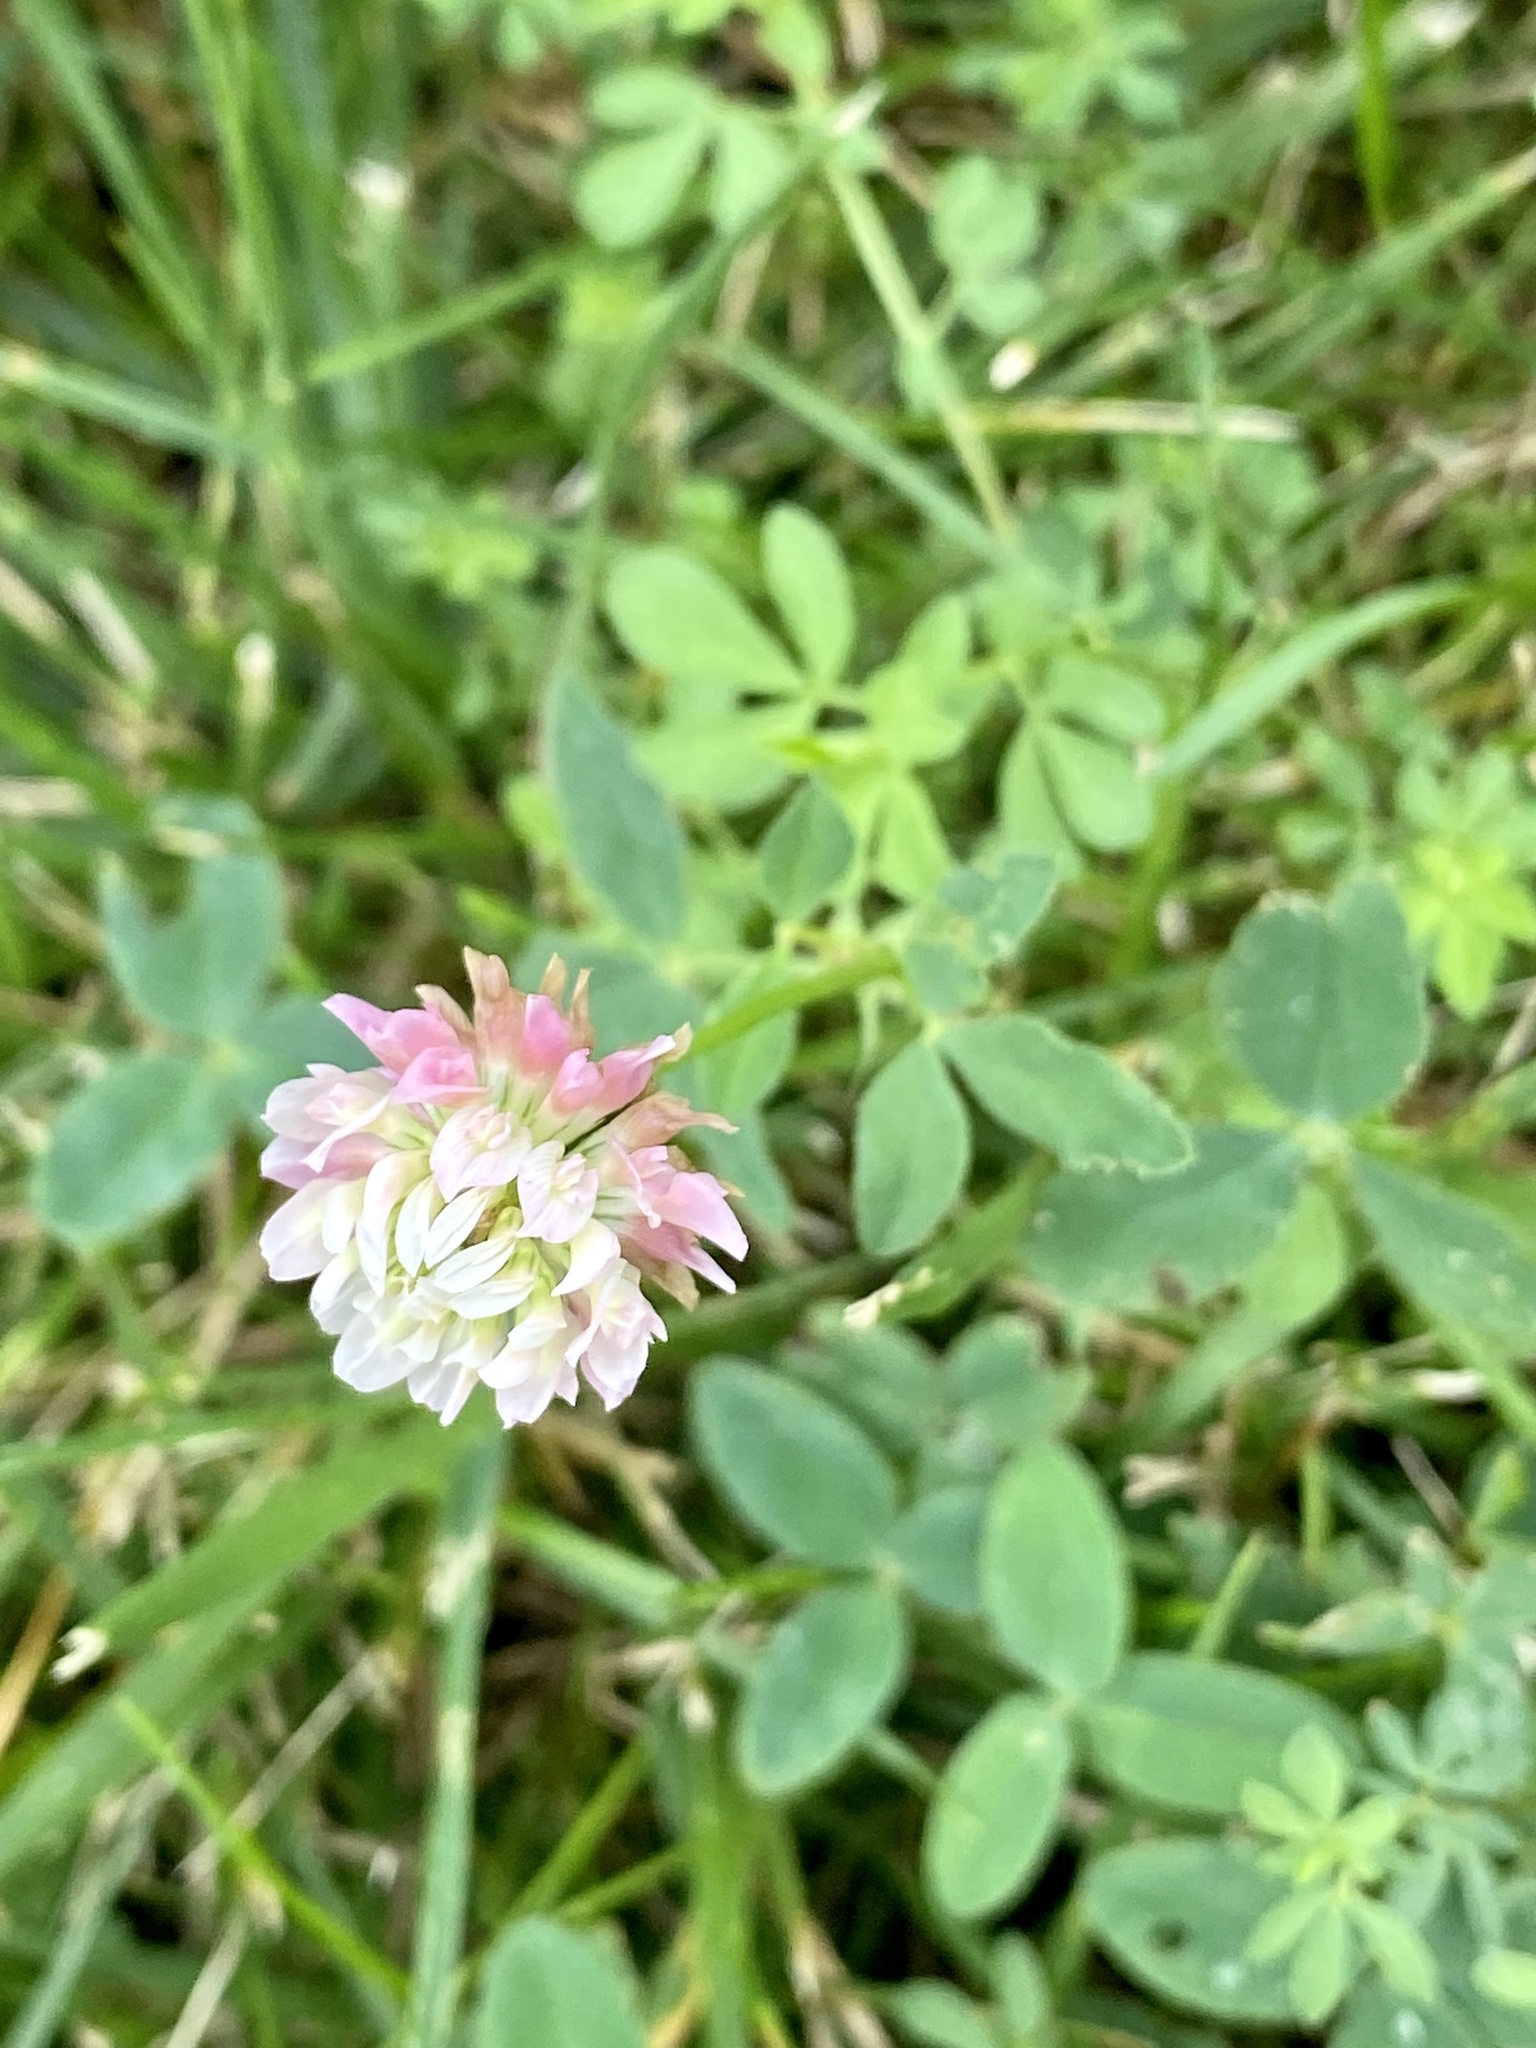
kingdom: Plantae
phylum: Tracheophyta
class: Magnoliopsida
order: Fabales
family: Fabaceae
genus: Trifolium
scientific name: Trifolium hybridum
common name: Alsike clover
